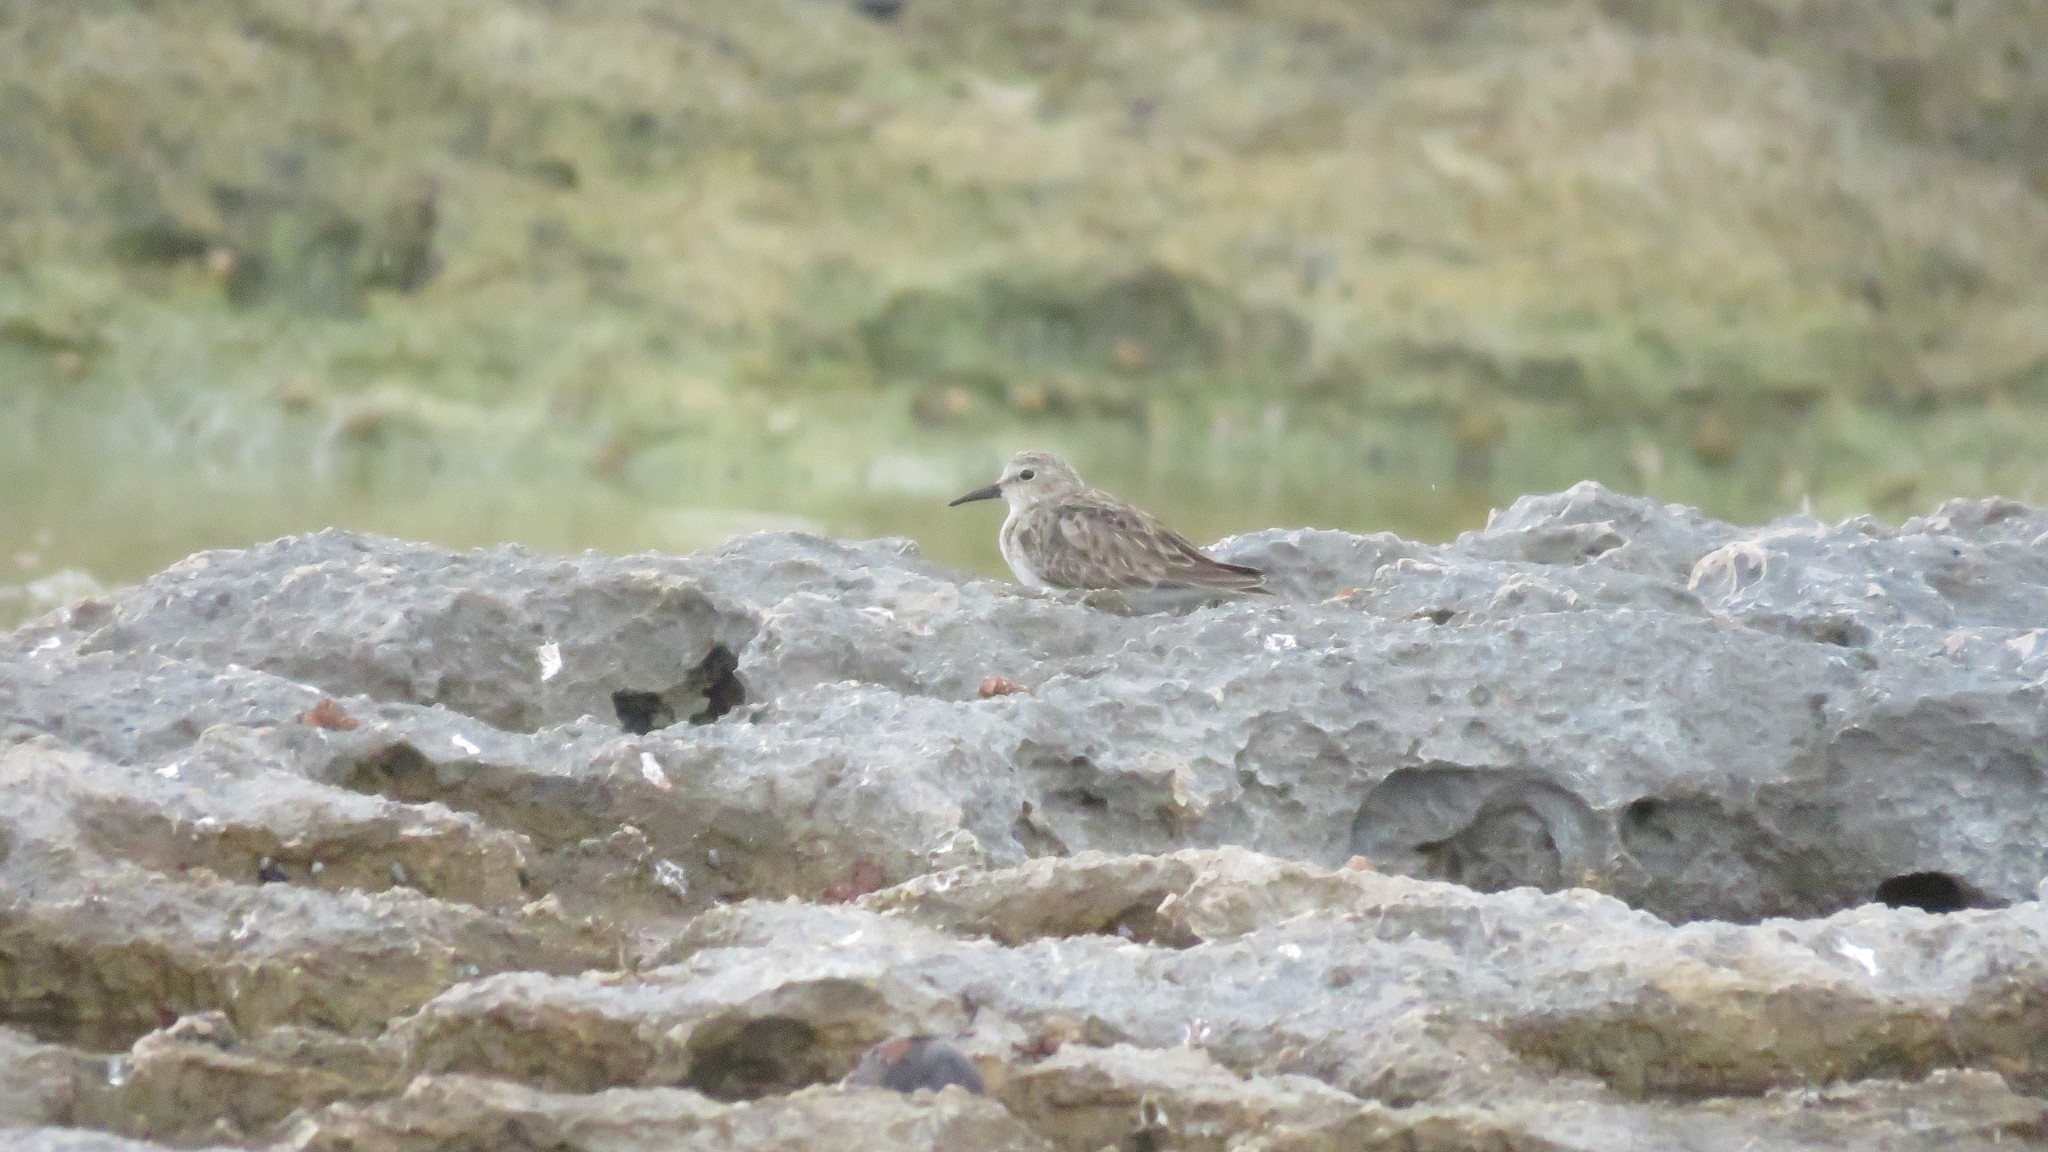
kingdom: Animalia
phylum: Chordata
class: Aves
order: Charadriiformes
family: Scolopacidae
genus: Calidris
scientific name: Calidris minutilla
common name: Least sandpiper
